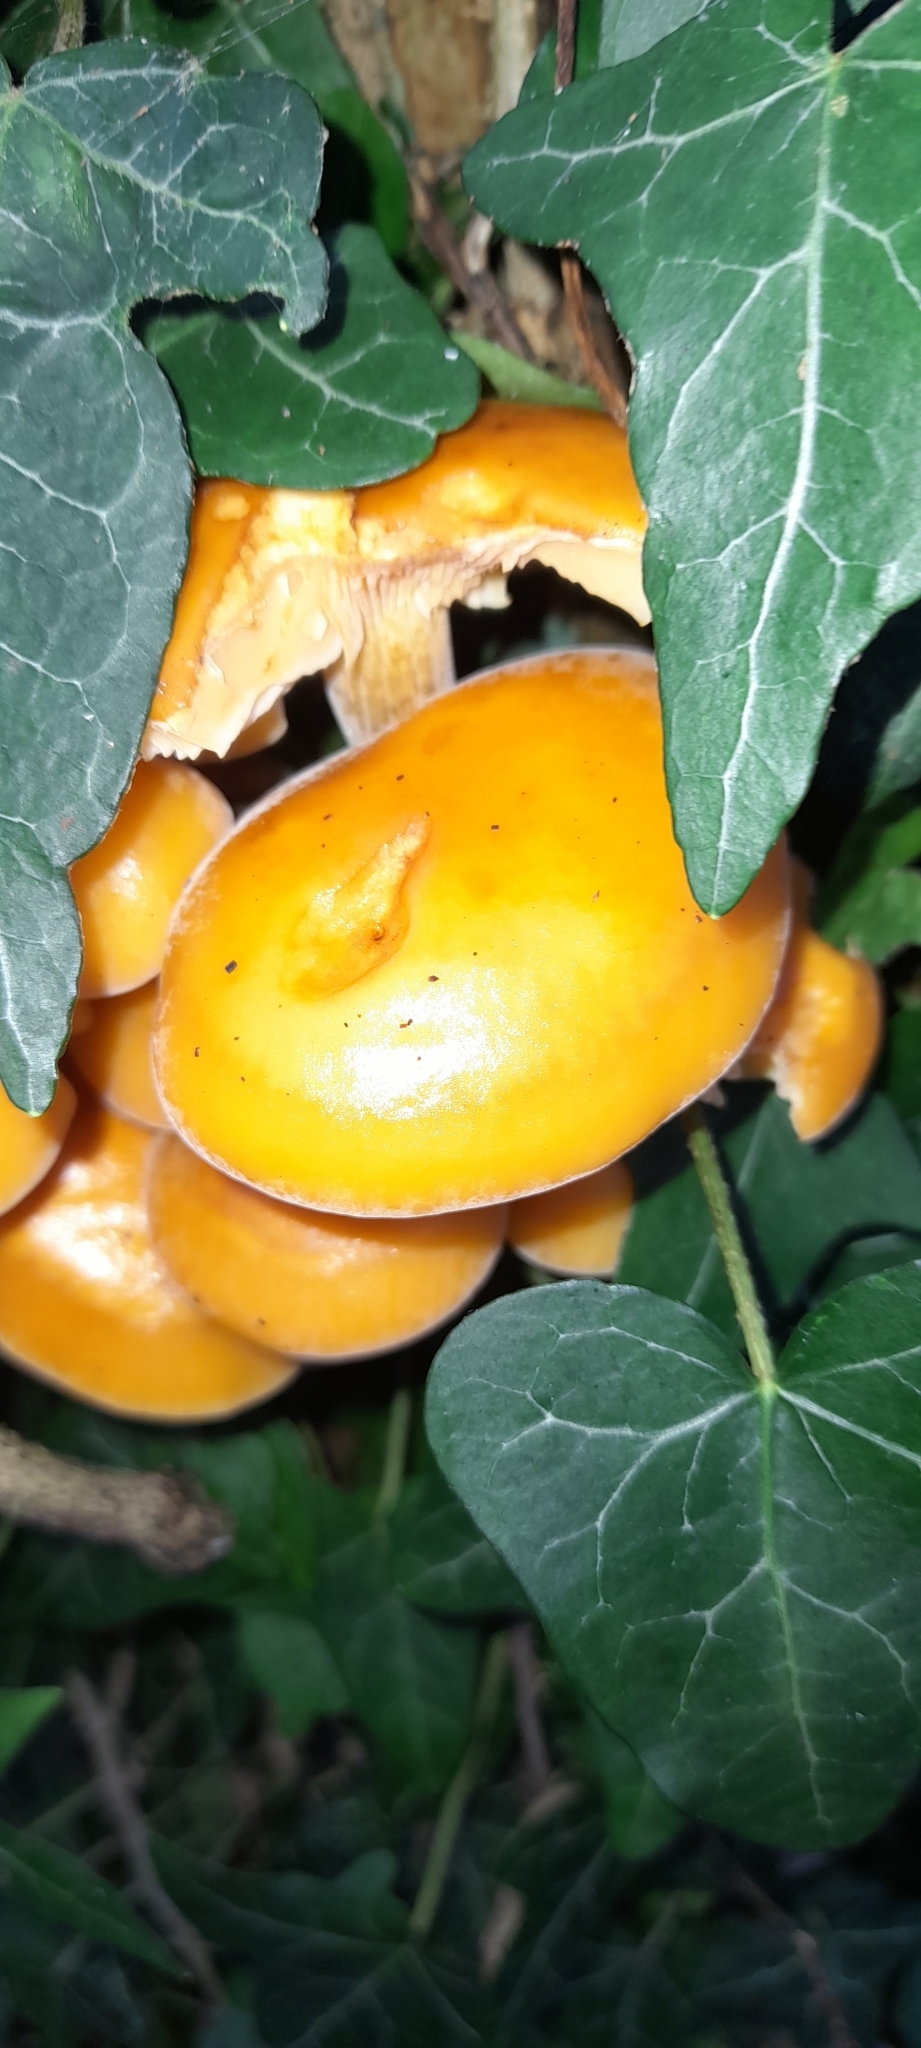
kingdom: Fungi
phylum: Basidiomycota
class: Agaricomycetes
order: Agaricales
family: Physalacriaceae
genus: Flammulina
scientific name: Flammulina
